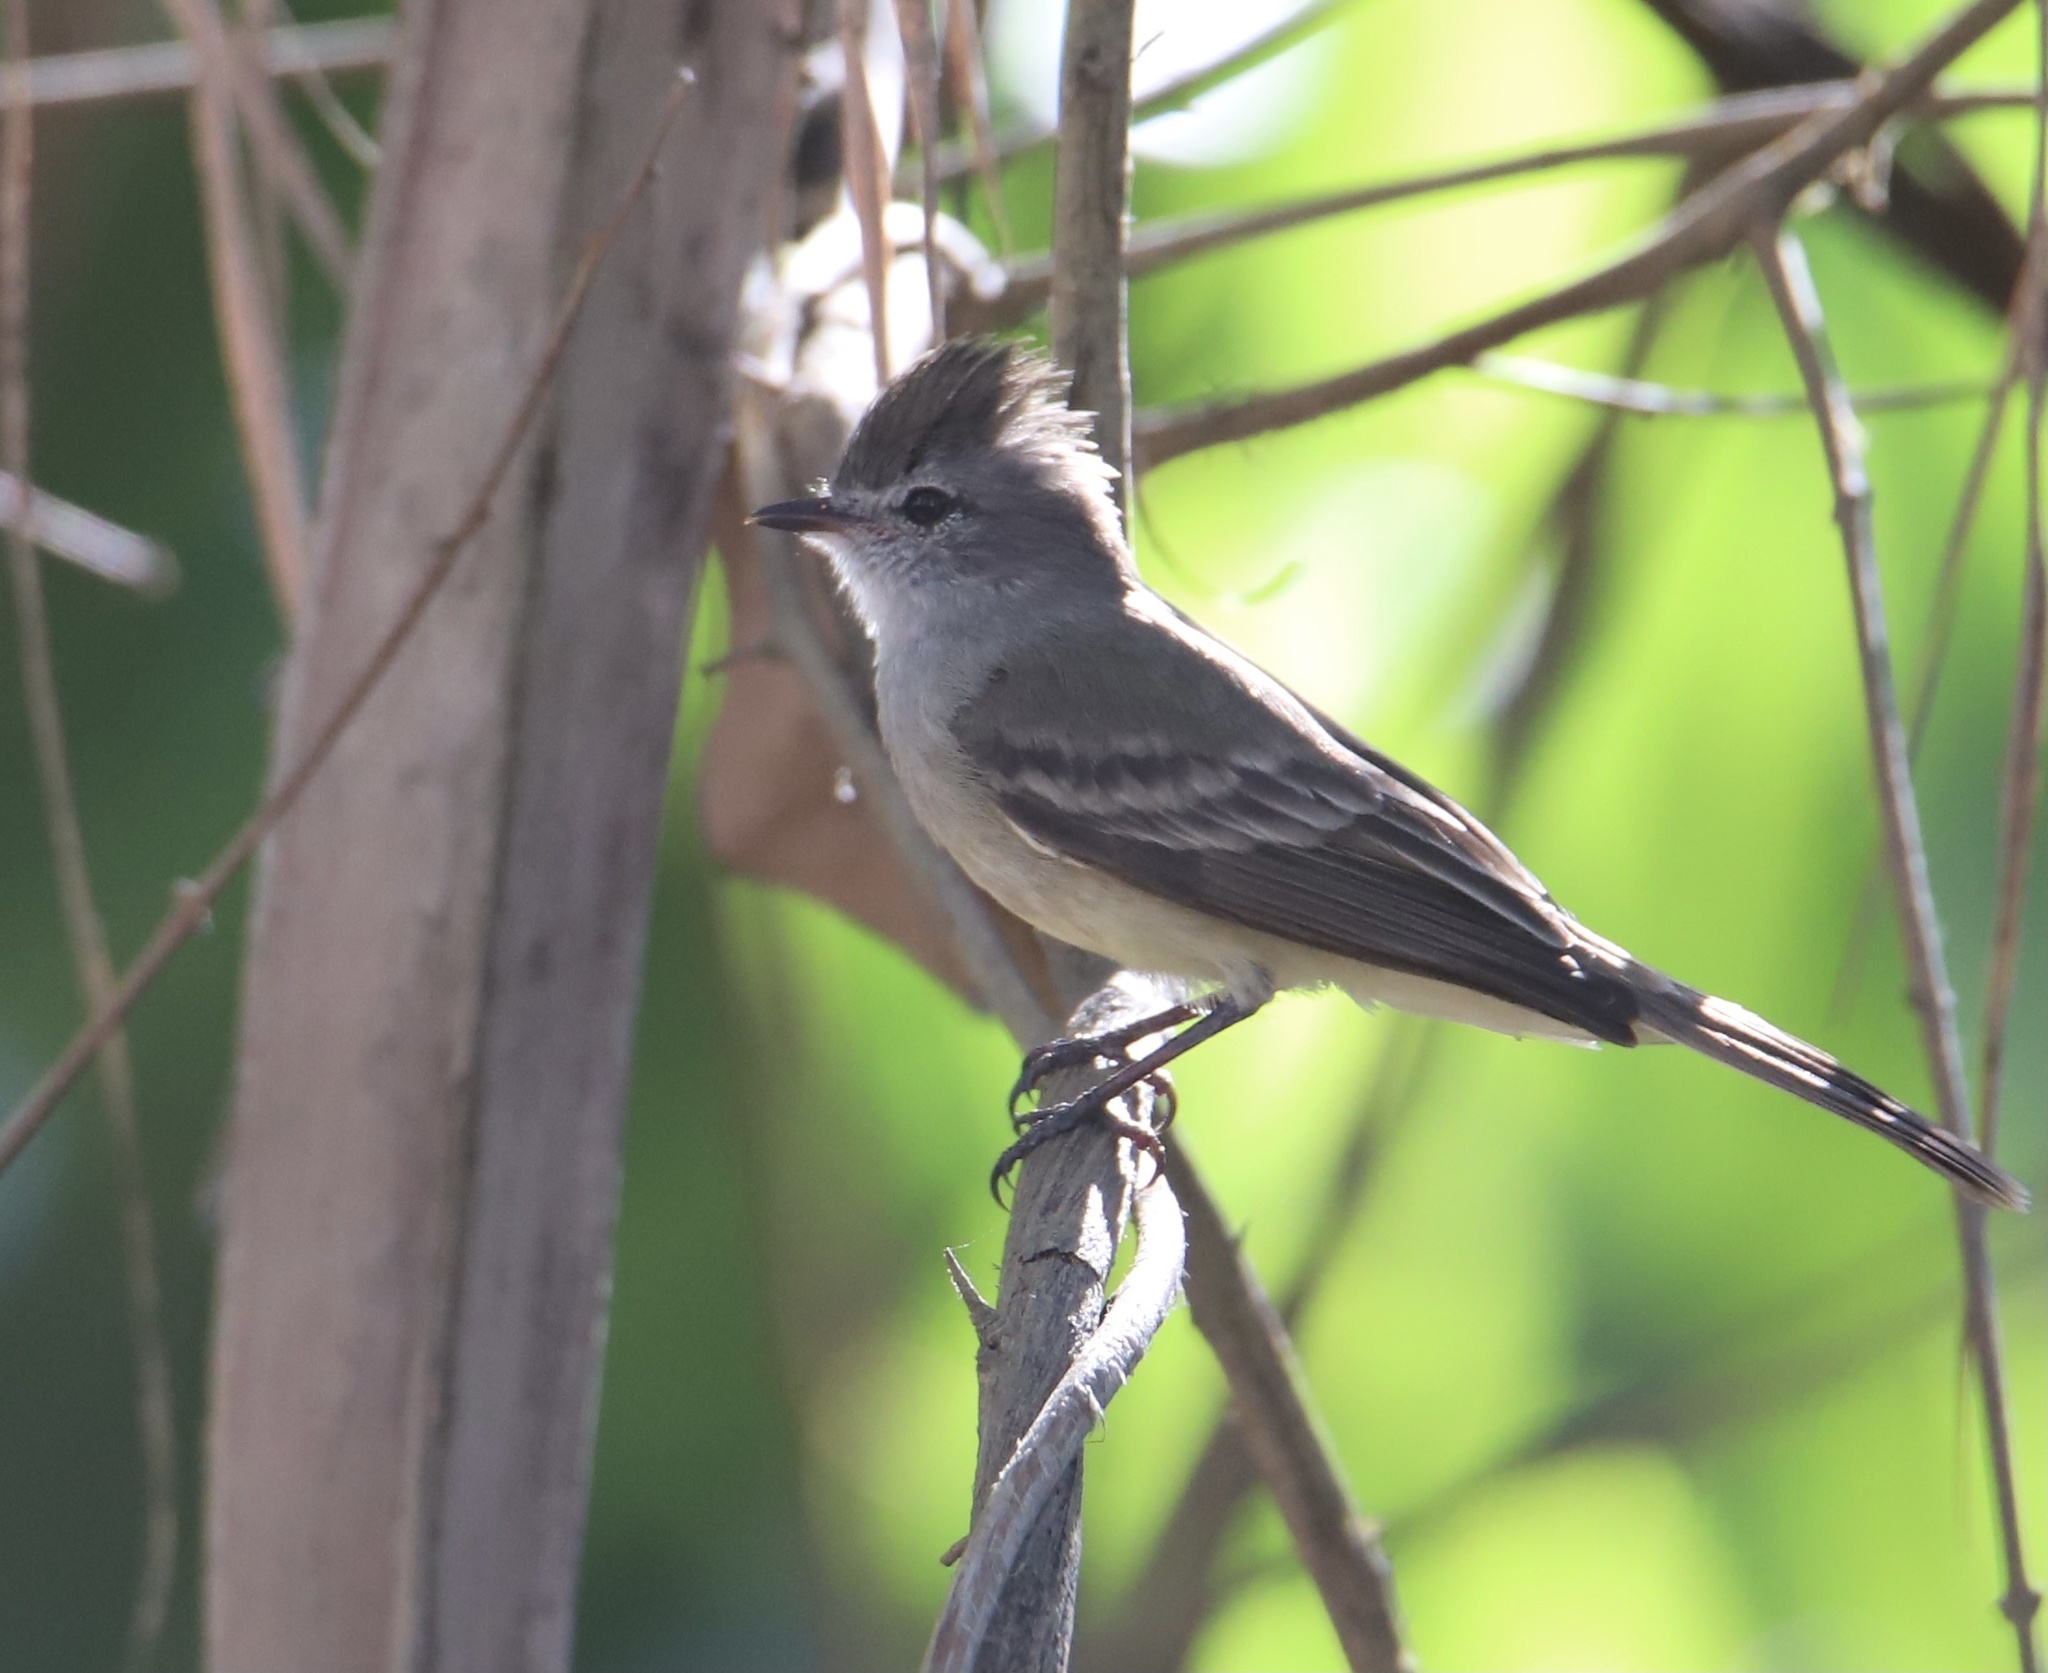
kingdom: Animalia
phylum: Chordata
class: Aves
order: Passeriformes
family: Tyrannidae
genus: Sublegatus
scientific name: Sublegatus arenarum
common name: Northern scrub-flycatcher
